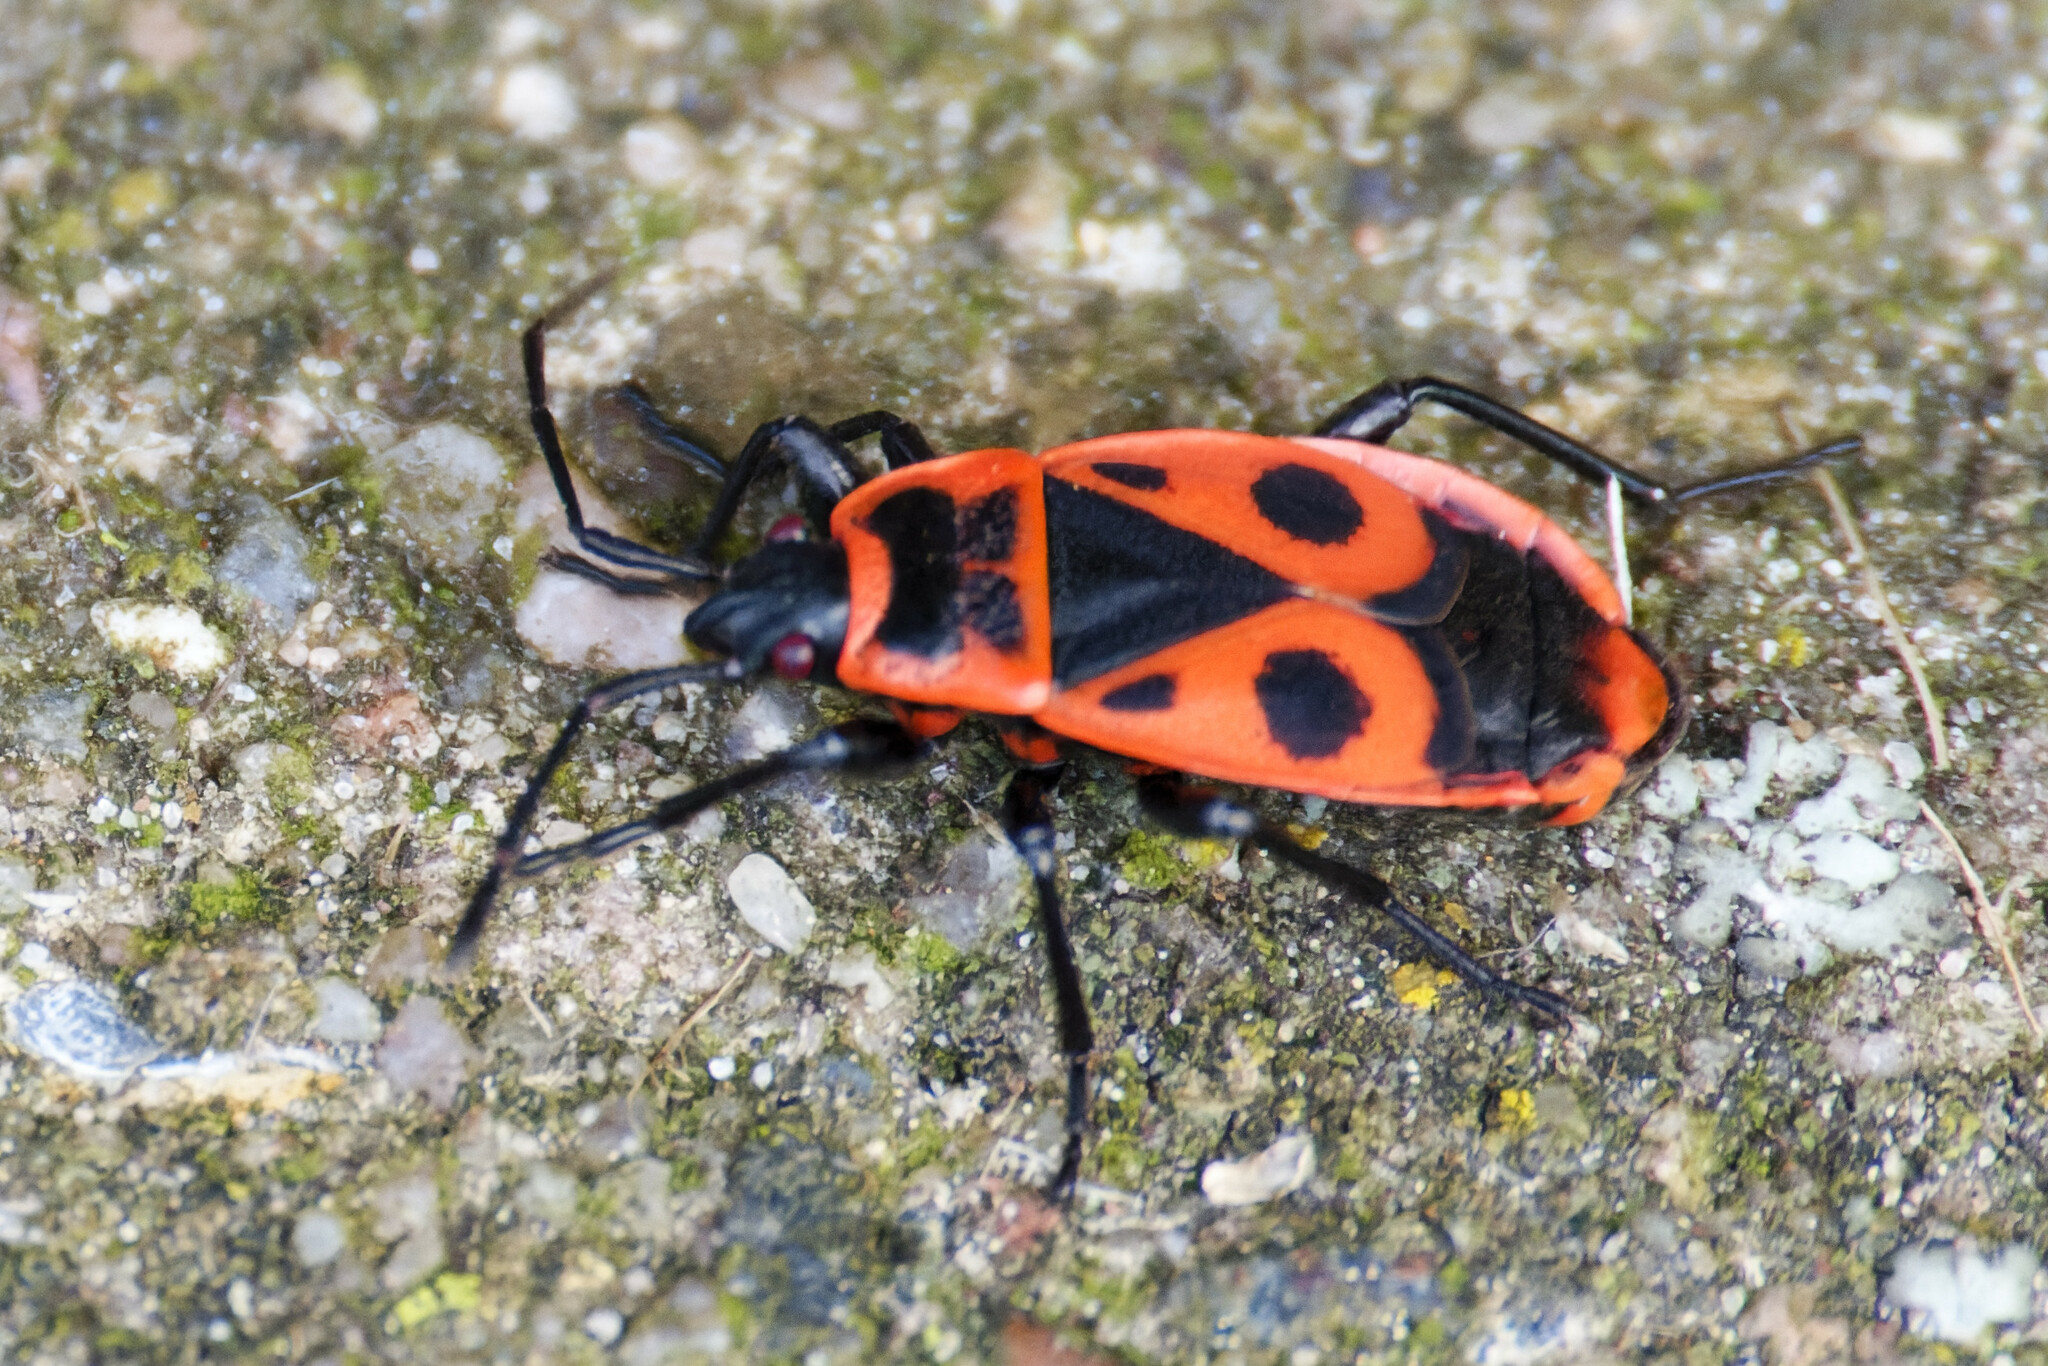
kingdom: Animalia
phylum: Arthropoda
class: Insecta
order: Hemiptera
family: Pyrrhocoridae
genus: Pyrrhocoris
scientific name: Pyrrhocoris apterus
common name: Firebug
